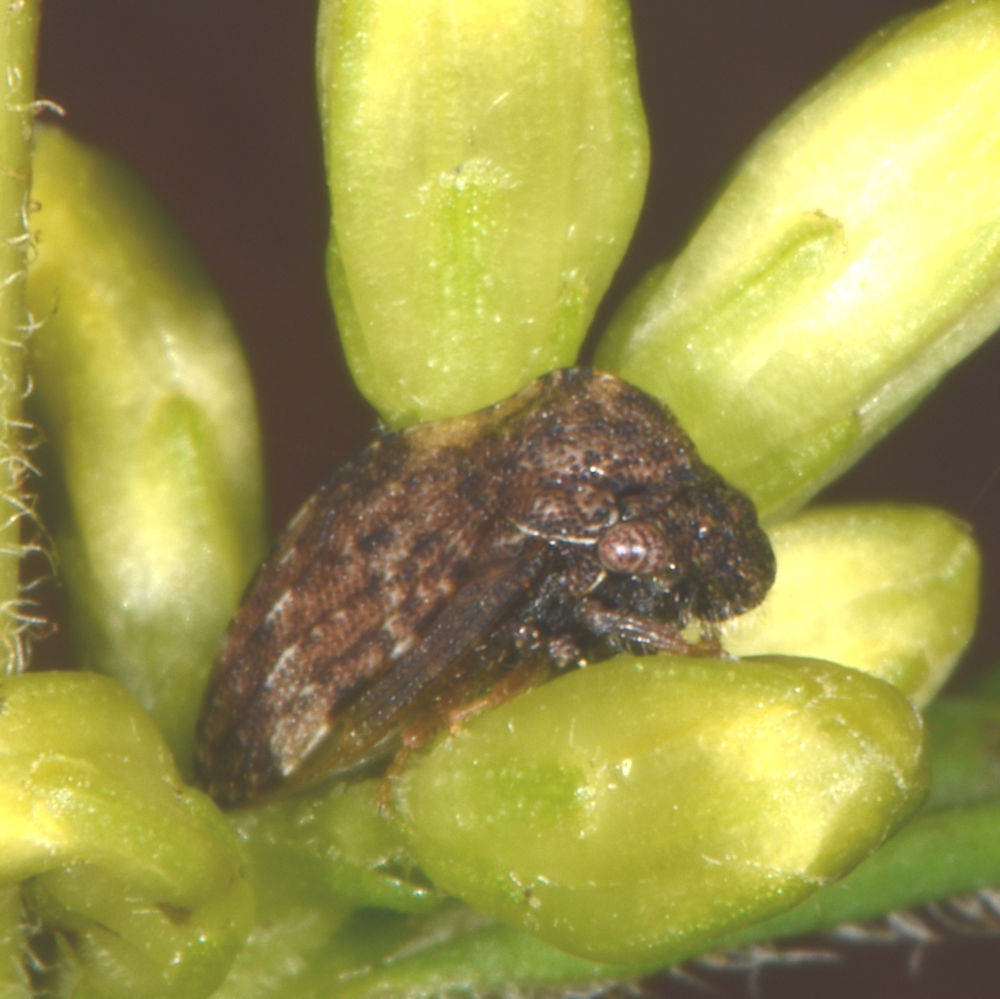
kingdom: Animalia
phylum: Arthropoda
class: Insecta
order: Hemiptera
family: Membracidae
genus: Publilia
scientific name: Publilia concava
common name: Aster treehopper
